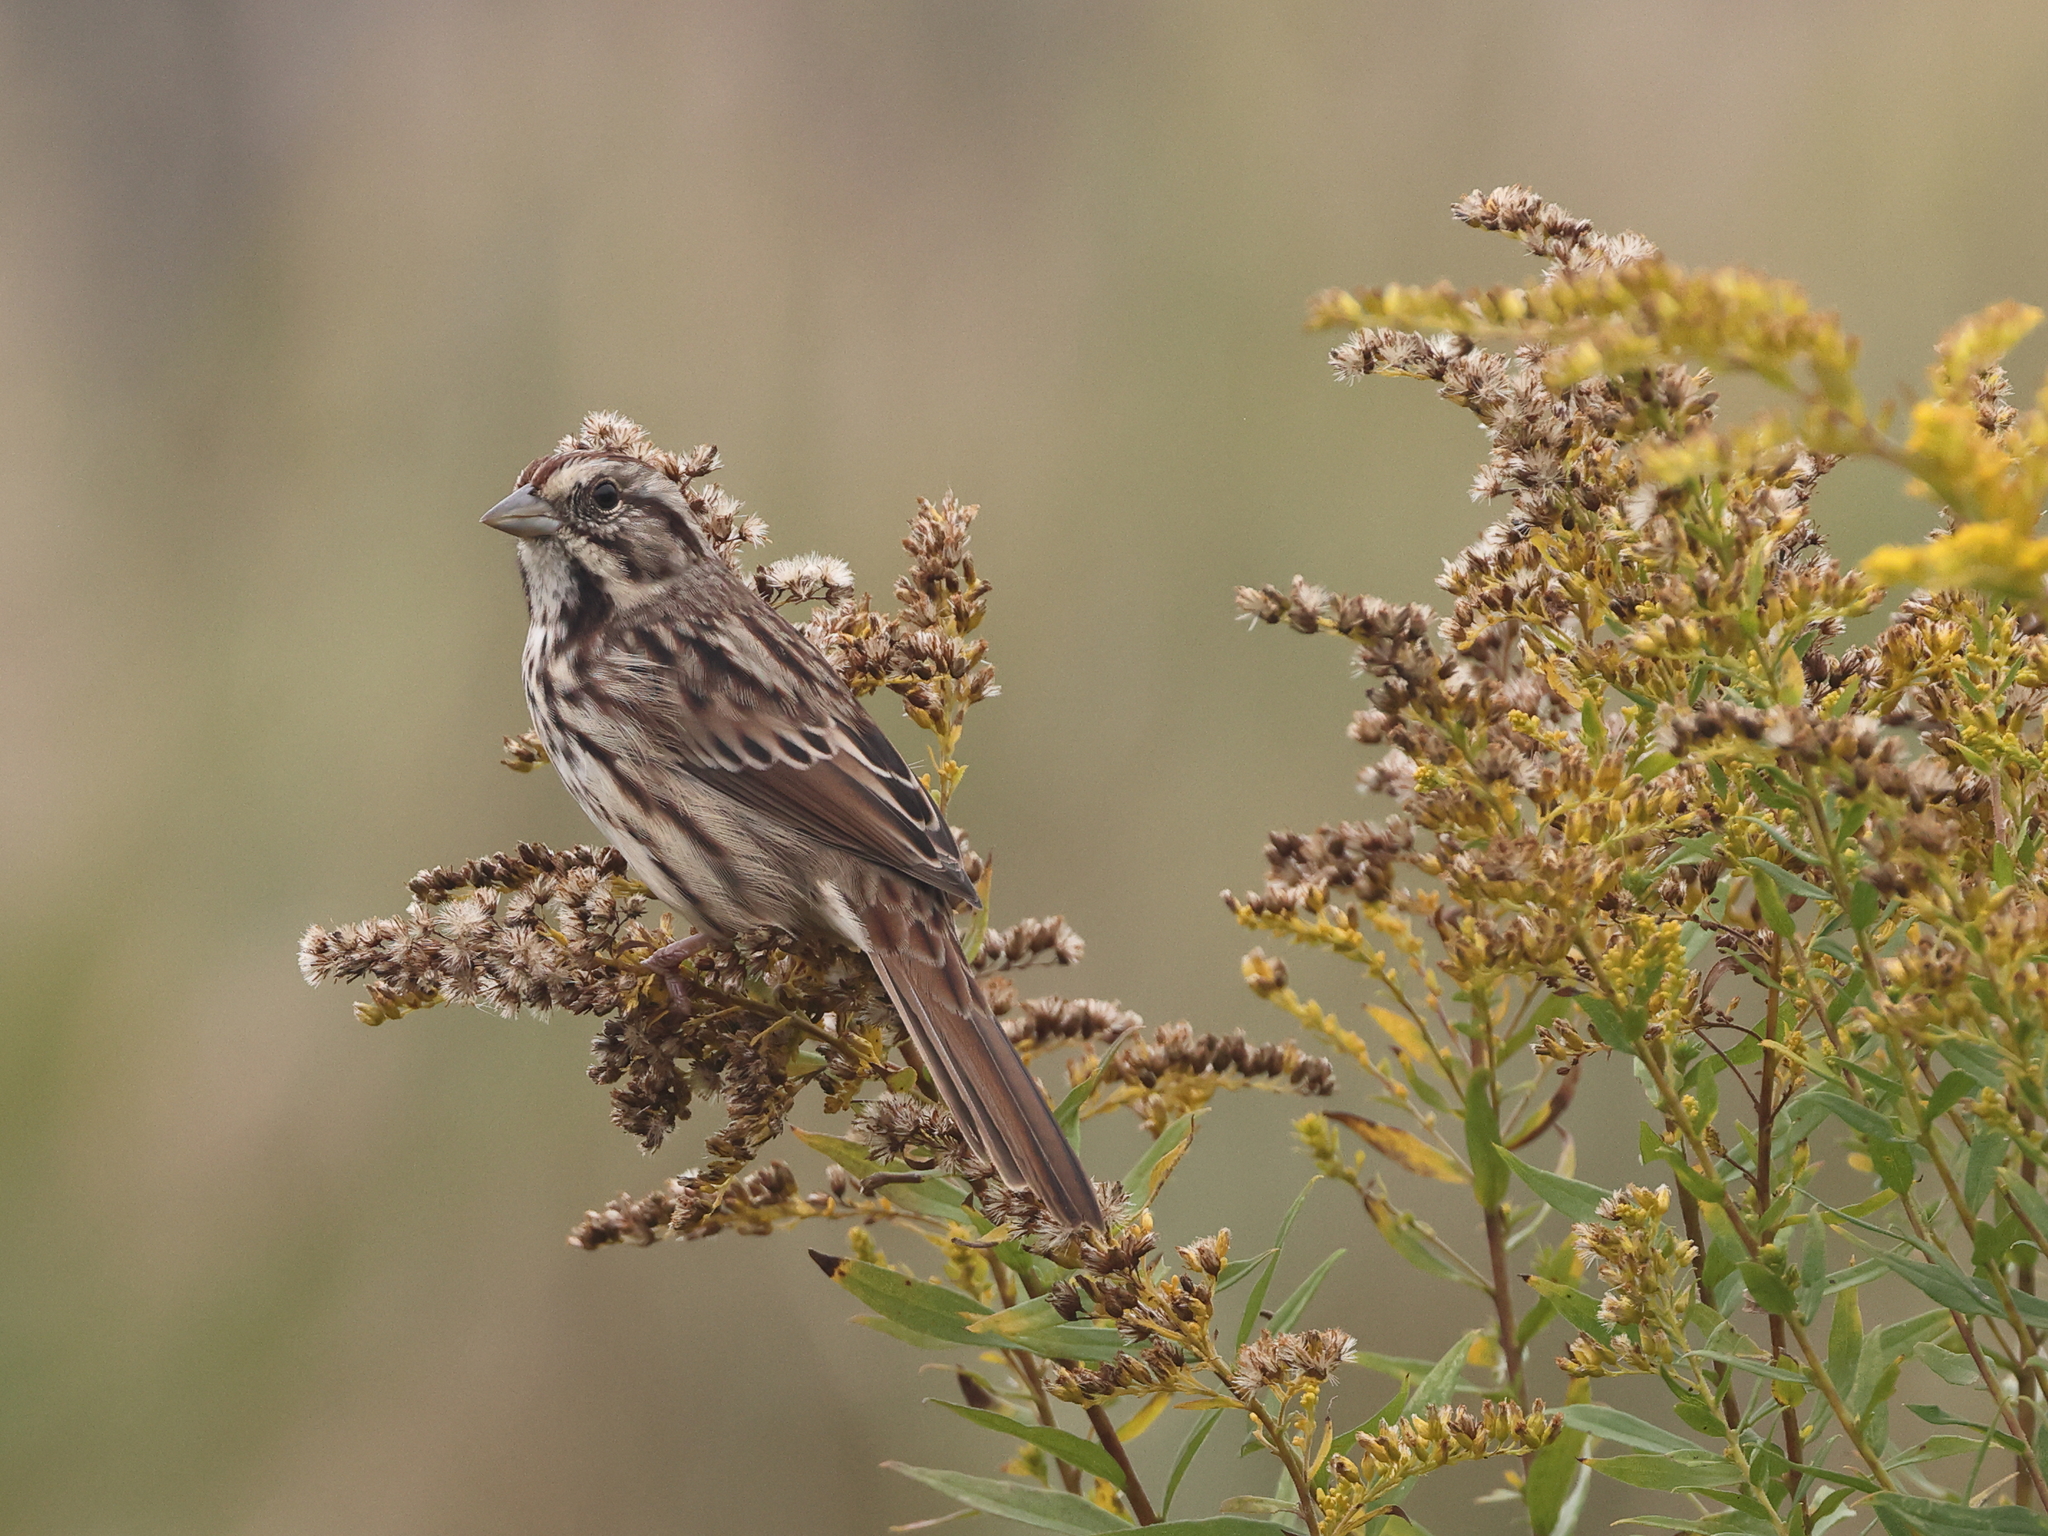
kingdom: Animalia
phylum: Chordata
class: Aves
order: Passeriformes
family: Passerellidae
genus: Melospiza
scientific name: Melospiza melodia
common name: Song sparrow
